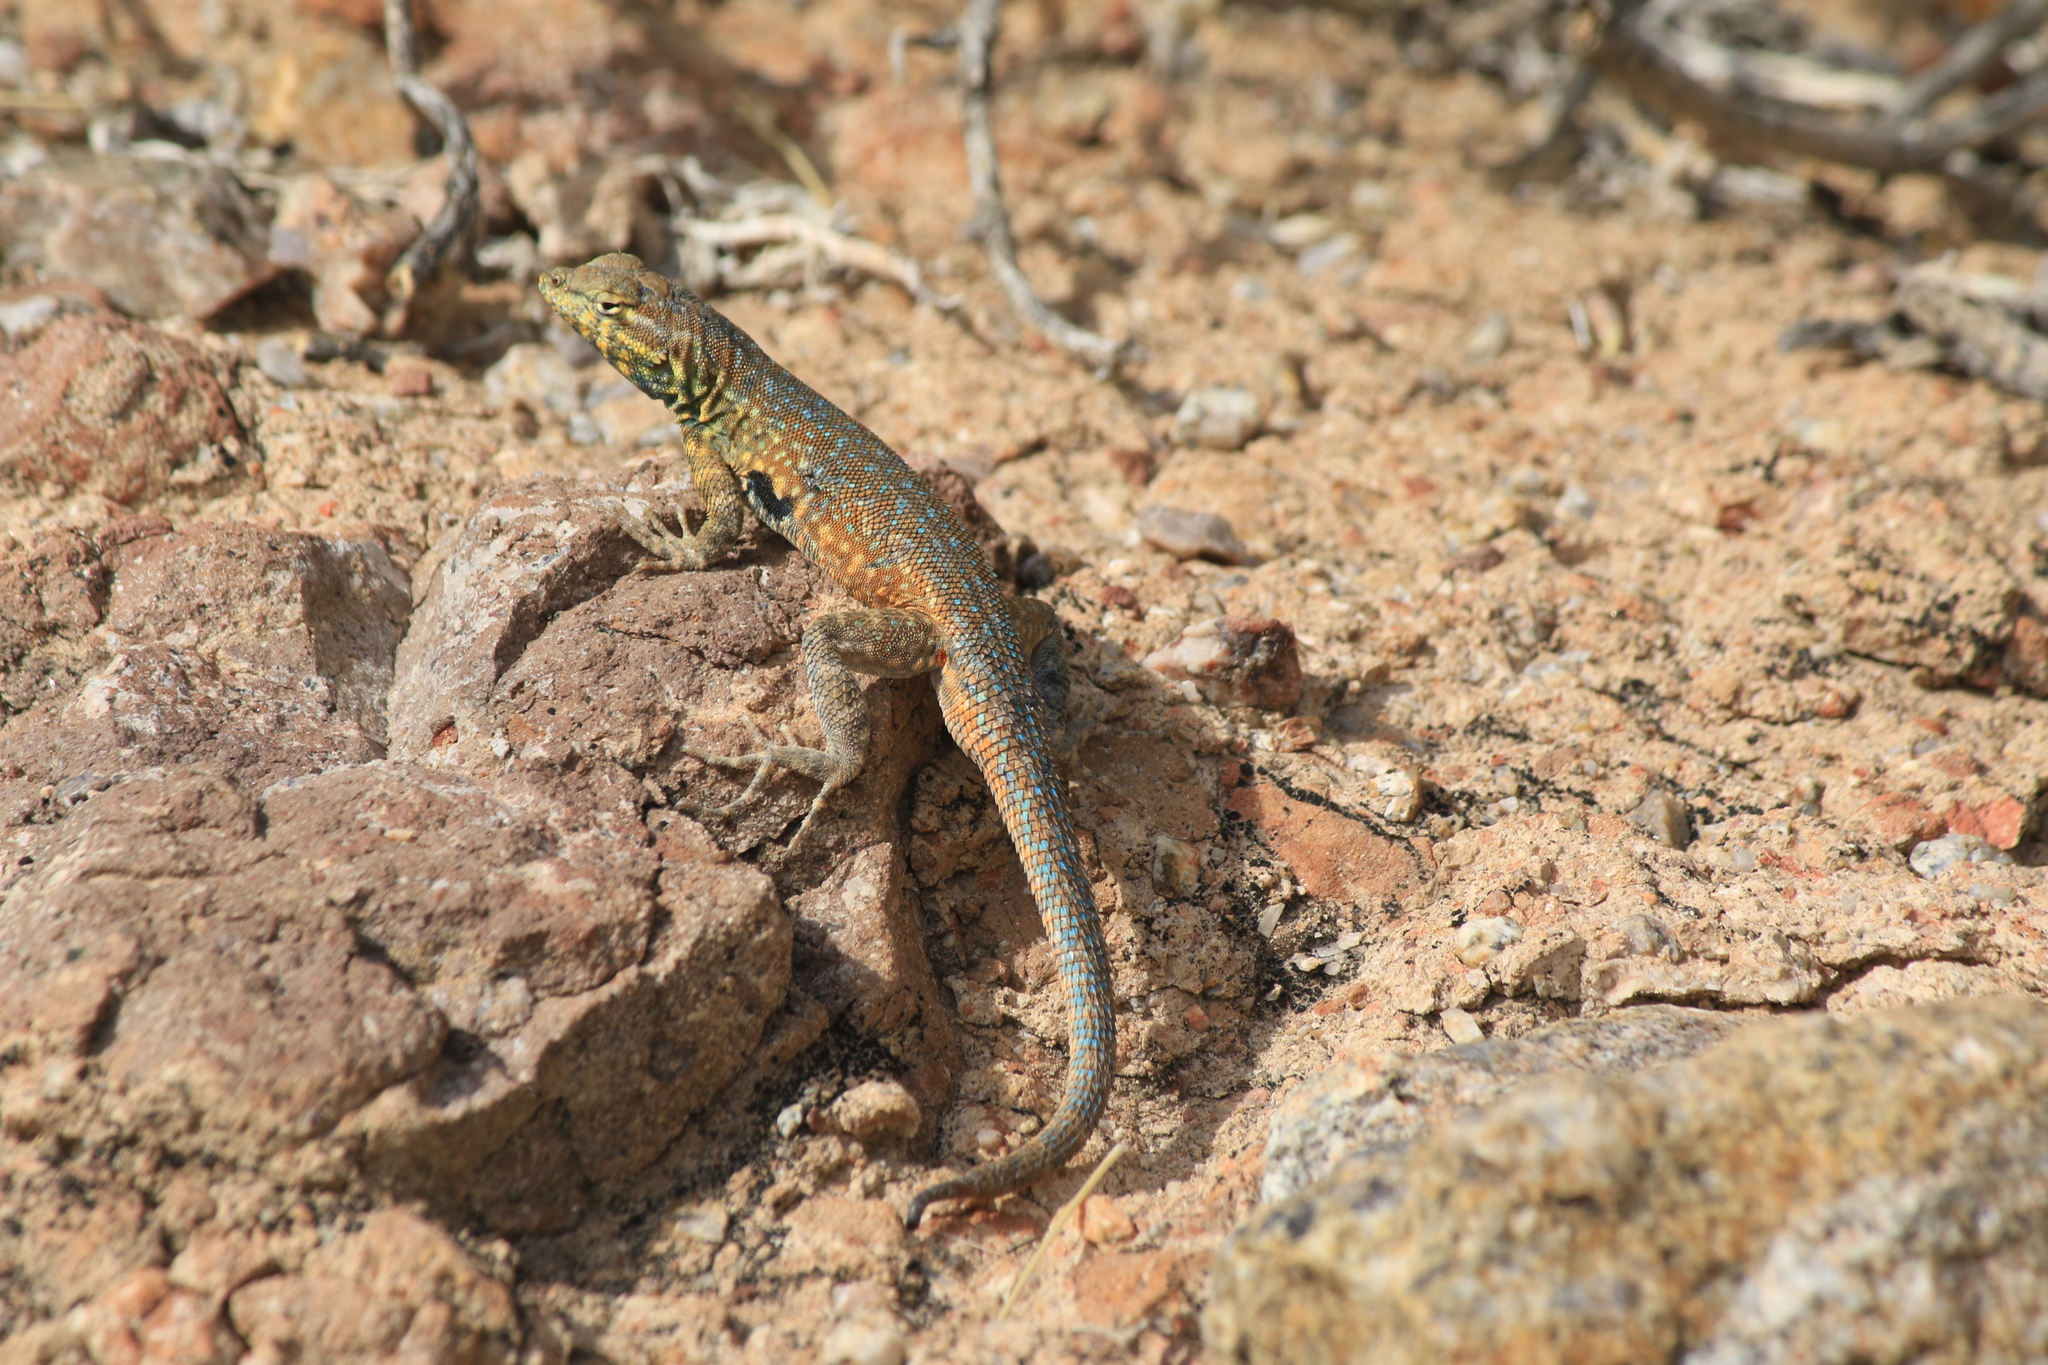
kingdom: Animalia
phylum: Chordata
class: Squamata
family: Phrynosomatidae
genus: Uta
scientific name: Uta stansburiana
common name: Side-blotched lizard
